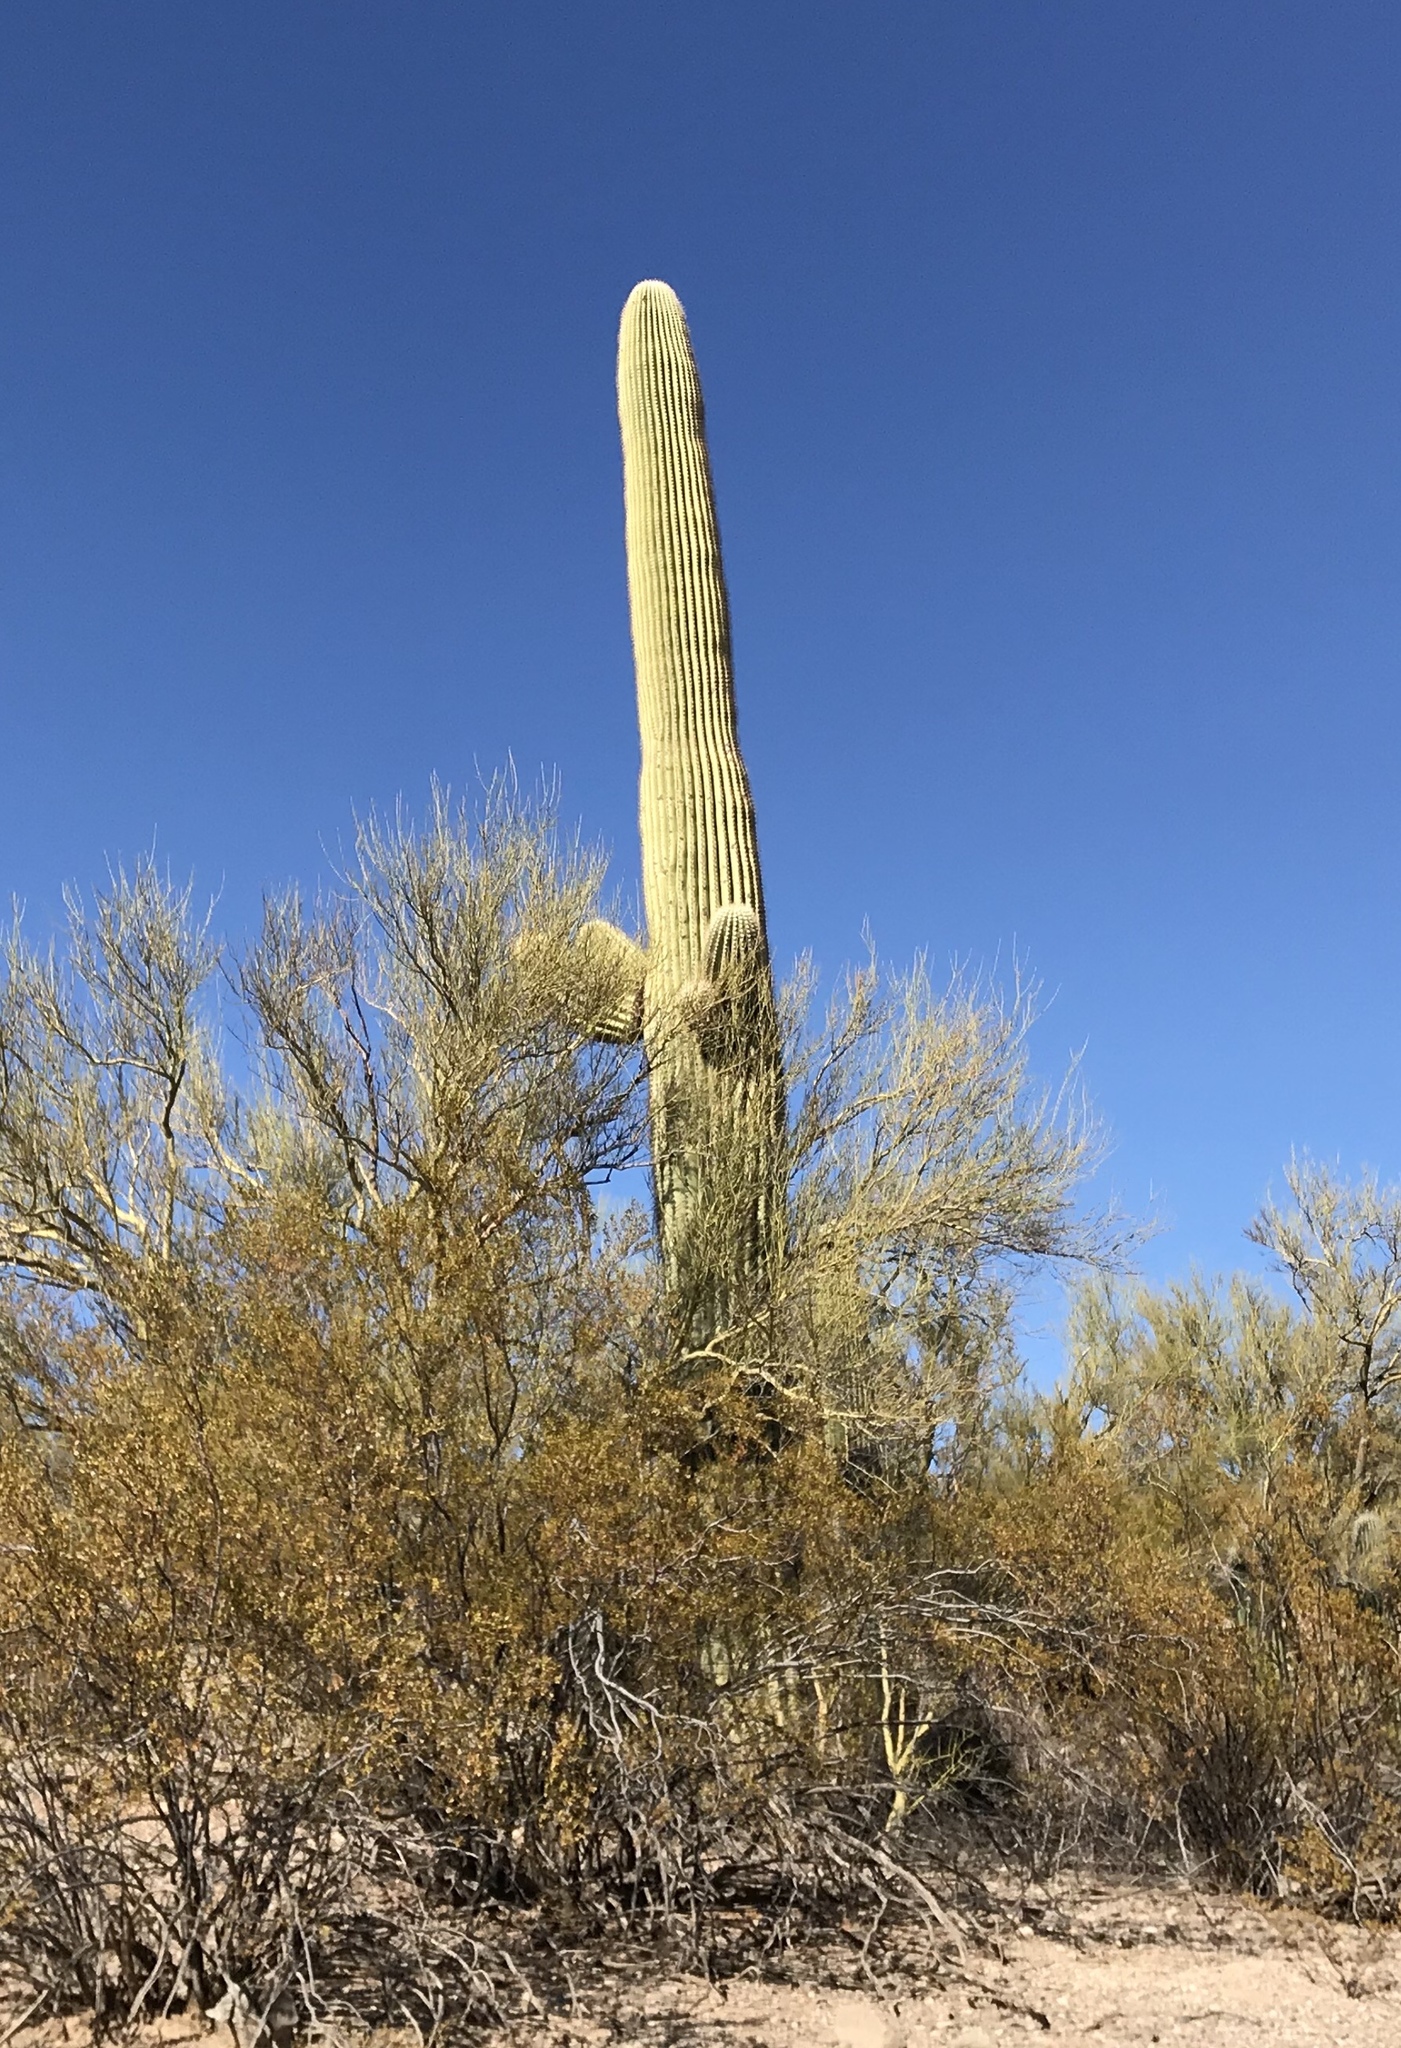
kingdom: Plantae
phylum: Tracheophyta
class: Magnoliopsida
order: Caryophyllales
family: Cactaceae
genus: Carnegiea
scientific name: Carnegiea gigantea
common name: Saguaro
